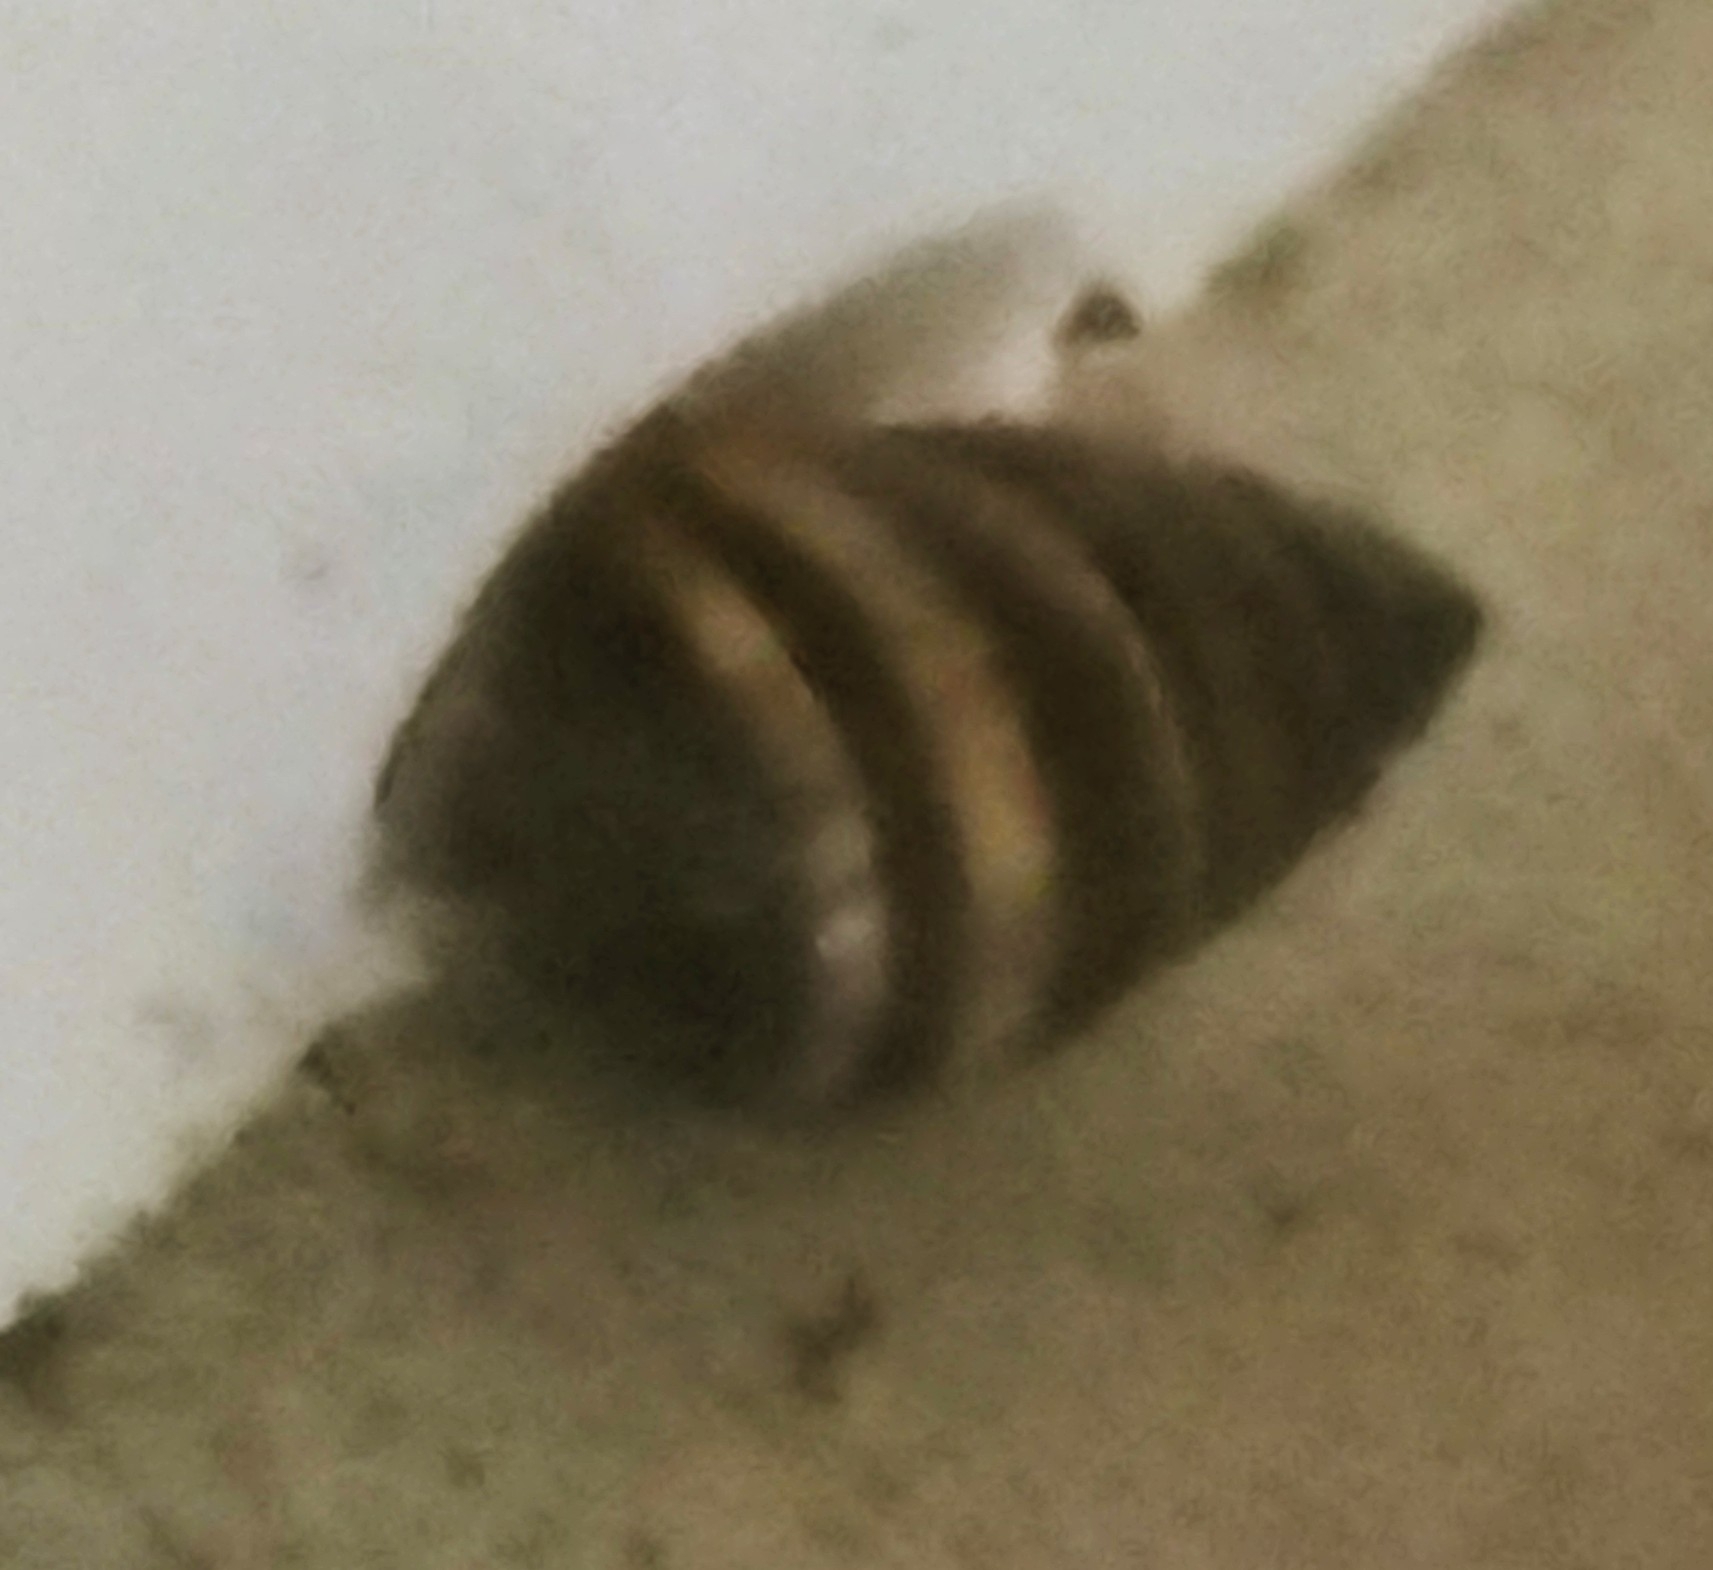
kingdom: Animalia
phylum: Mollusca
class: Gastropoda
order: Stylommatophora
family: Bulimulidae
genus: Bulimulus
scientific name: Bulimulus guadalupensis
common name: West indian bulimulus
